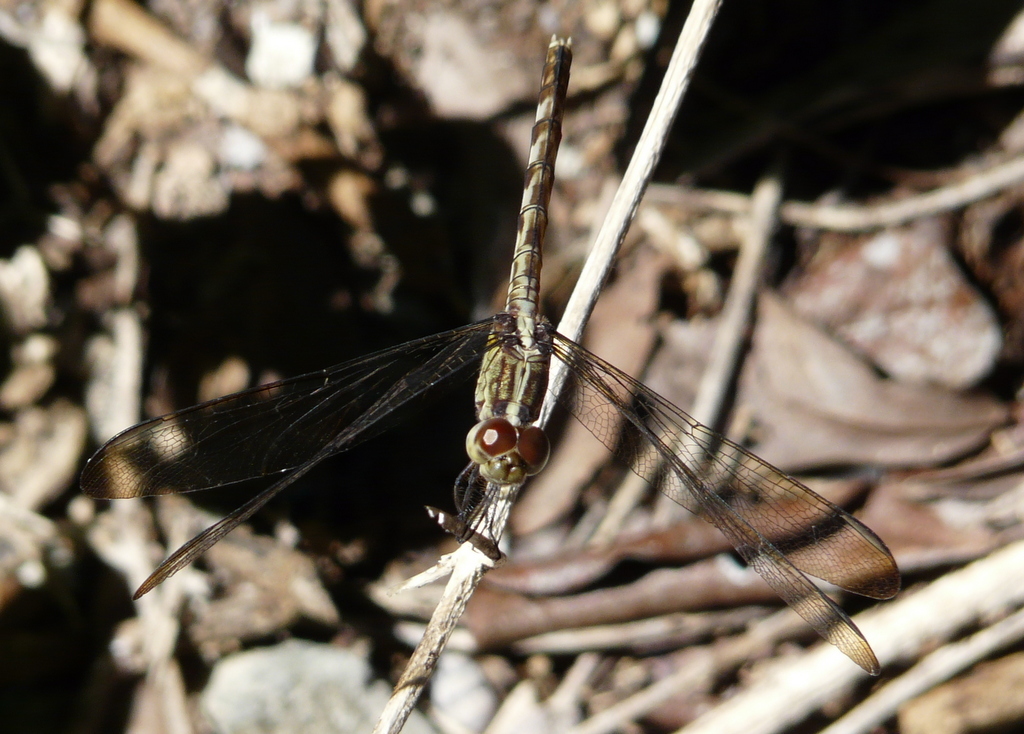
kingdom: Animalia
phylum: Arthropoda
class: Insecta
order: Odonata
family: Libellulidae
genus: Erythrodiplax
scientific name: Erythrodiplax umbrata
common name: Band-winged dragonlet
